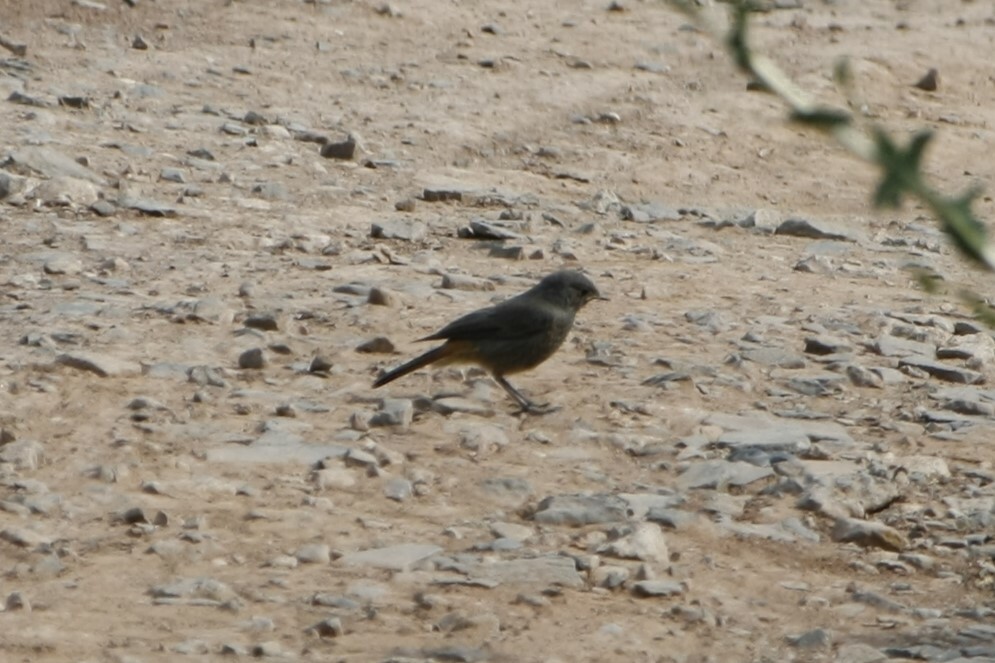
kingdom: Animalia
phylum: Chordata
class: Aves
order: Passeriformes
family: Muscicapidae
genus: Phoenicurus
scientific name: Phoenicurus ochruros
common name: Black redstart
